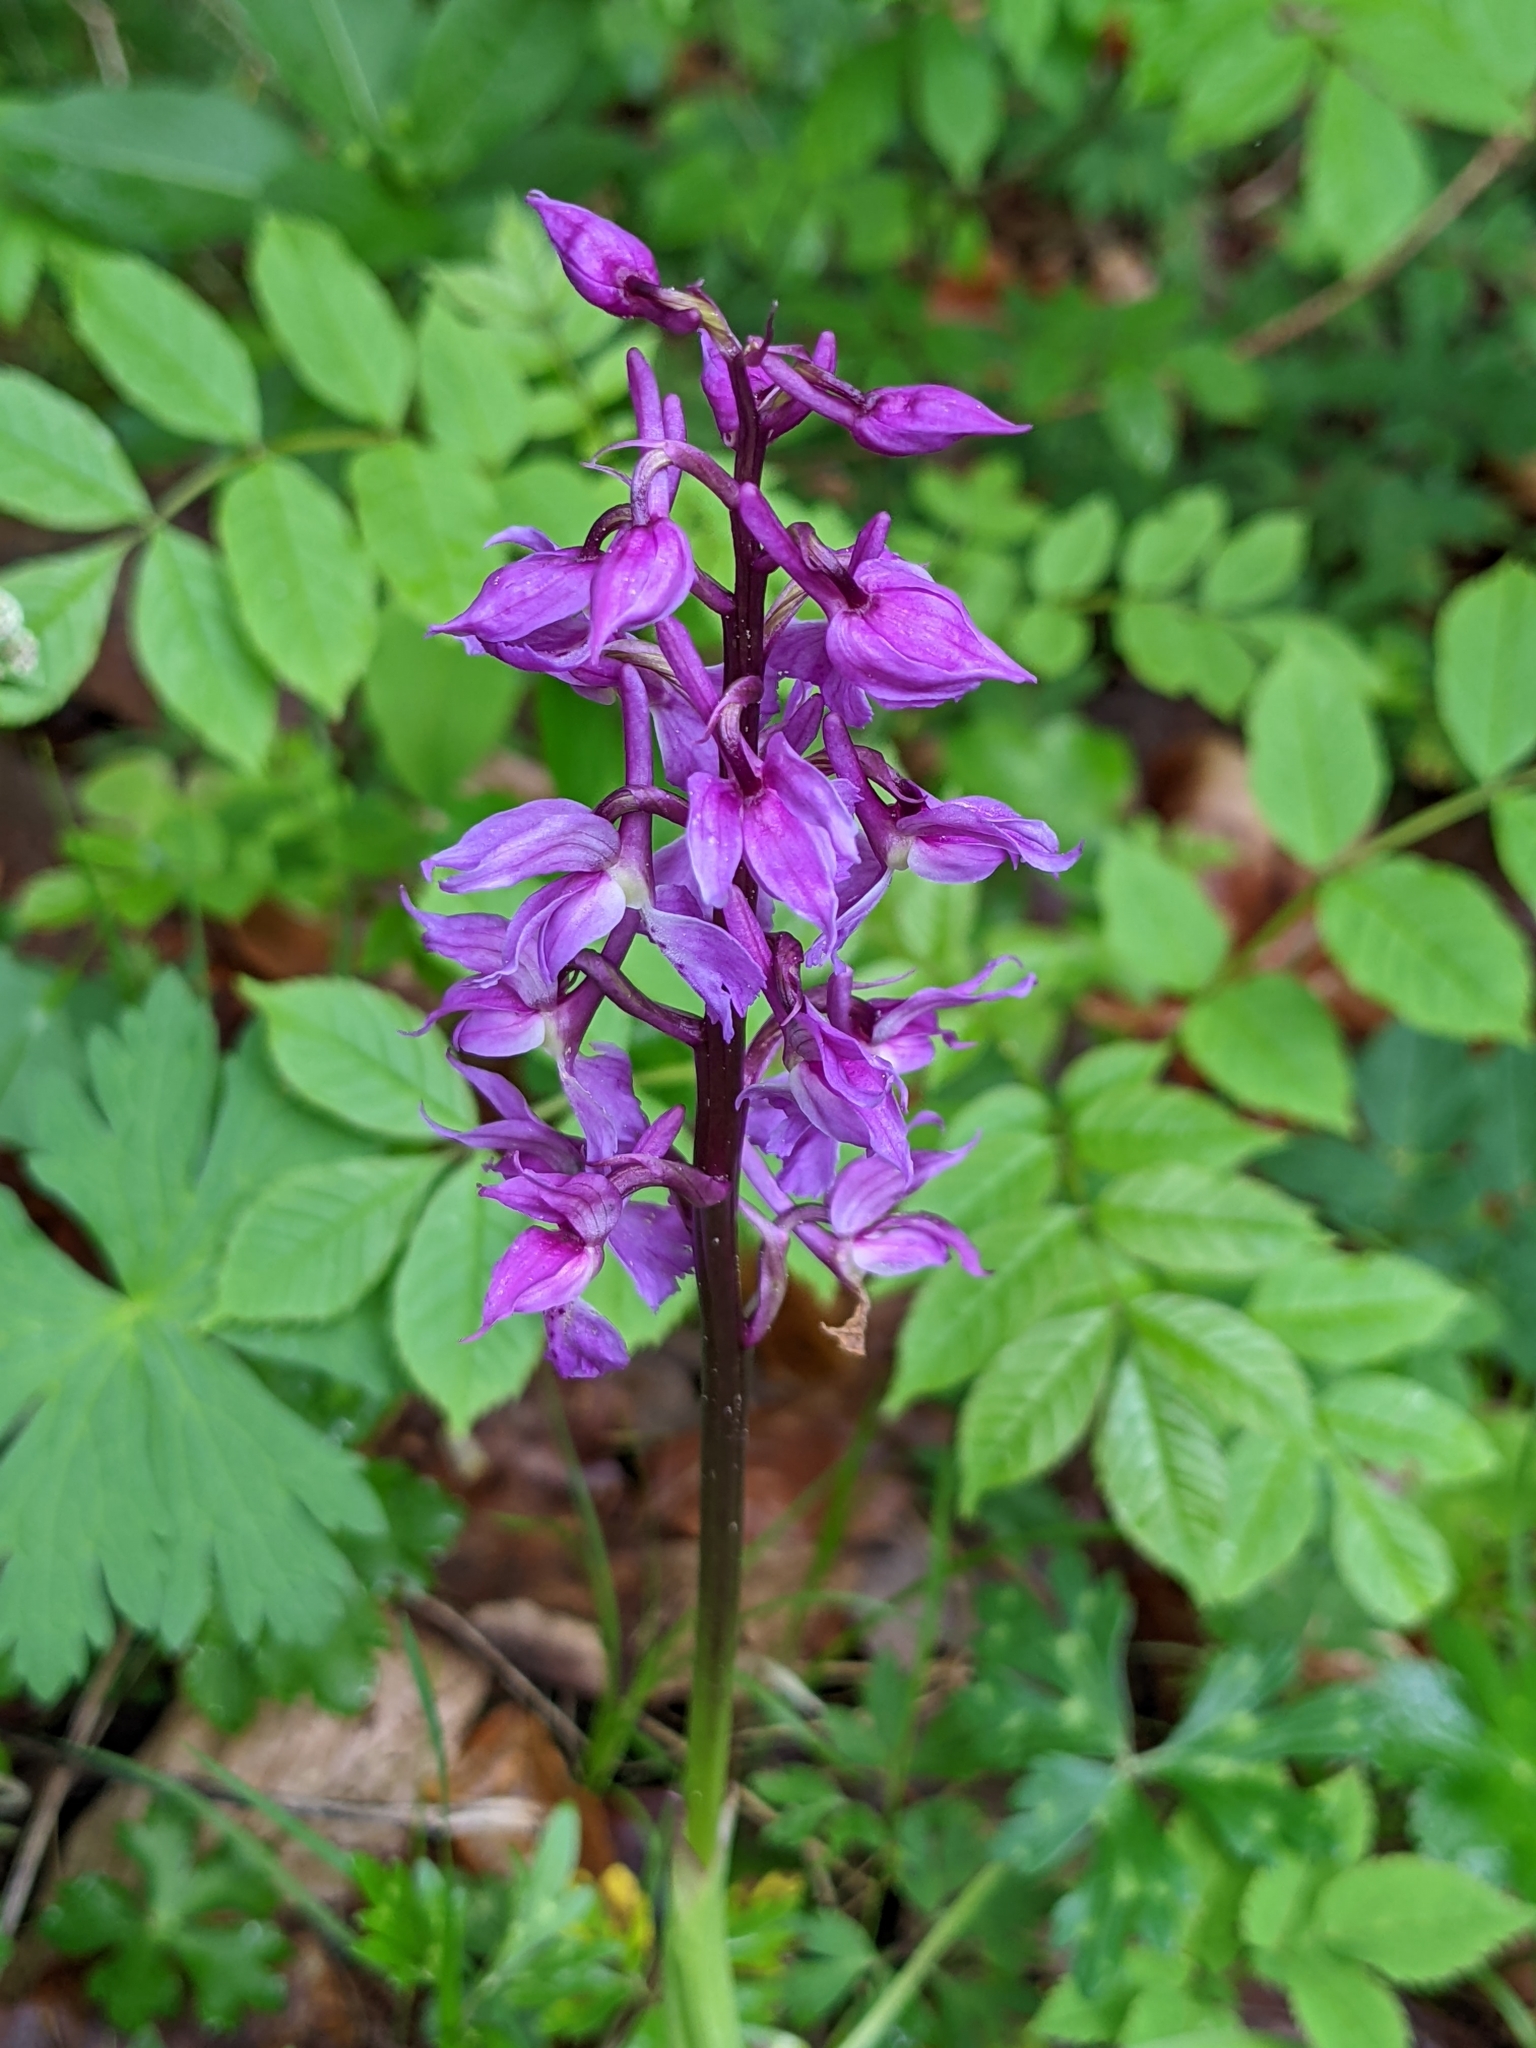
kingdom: Plantae
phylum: Tracheophyta
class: Liliopsida
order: Asparagales
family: Orchidaceae
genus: Orchis
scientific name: Orchis mascula
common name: Early-purple orchid
